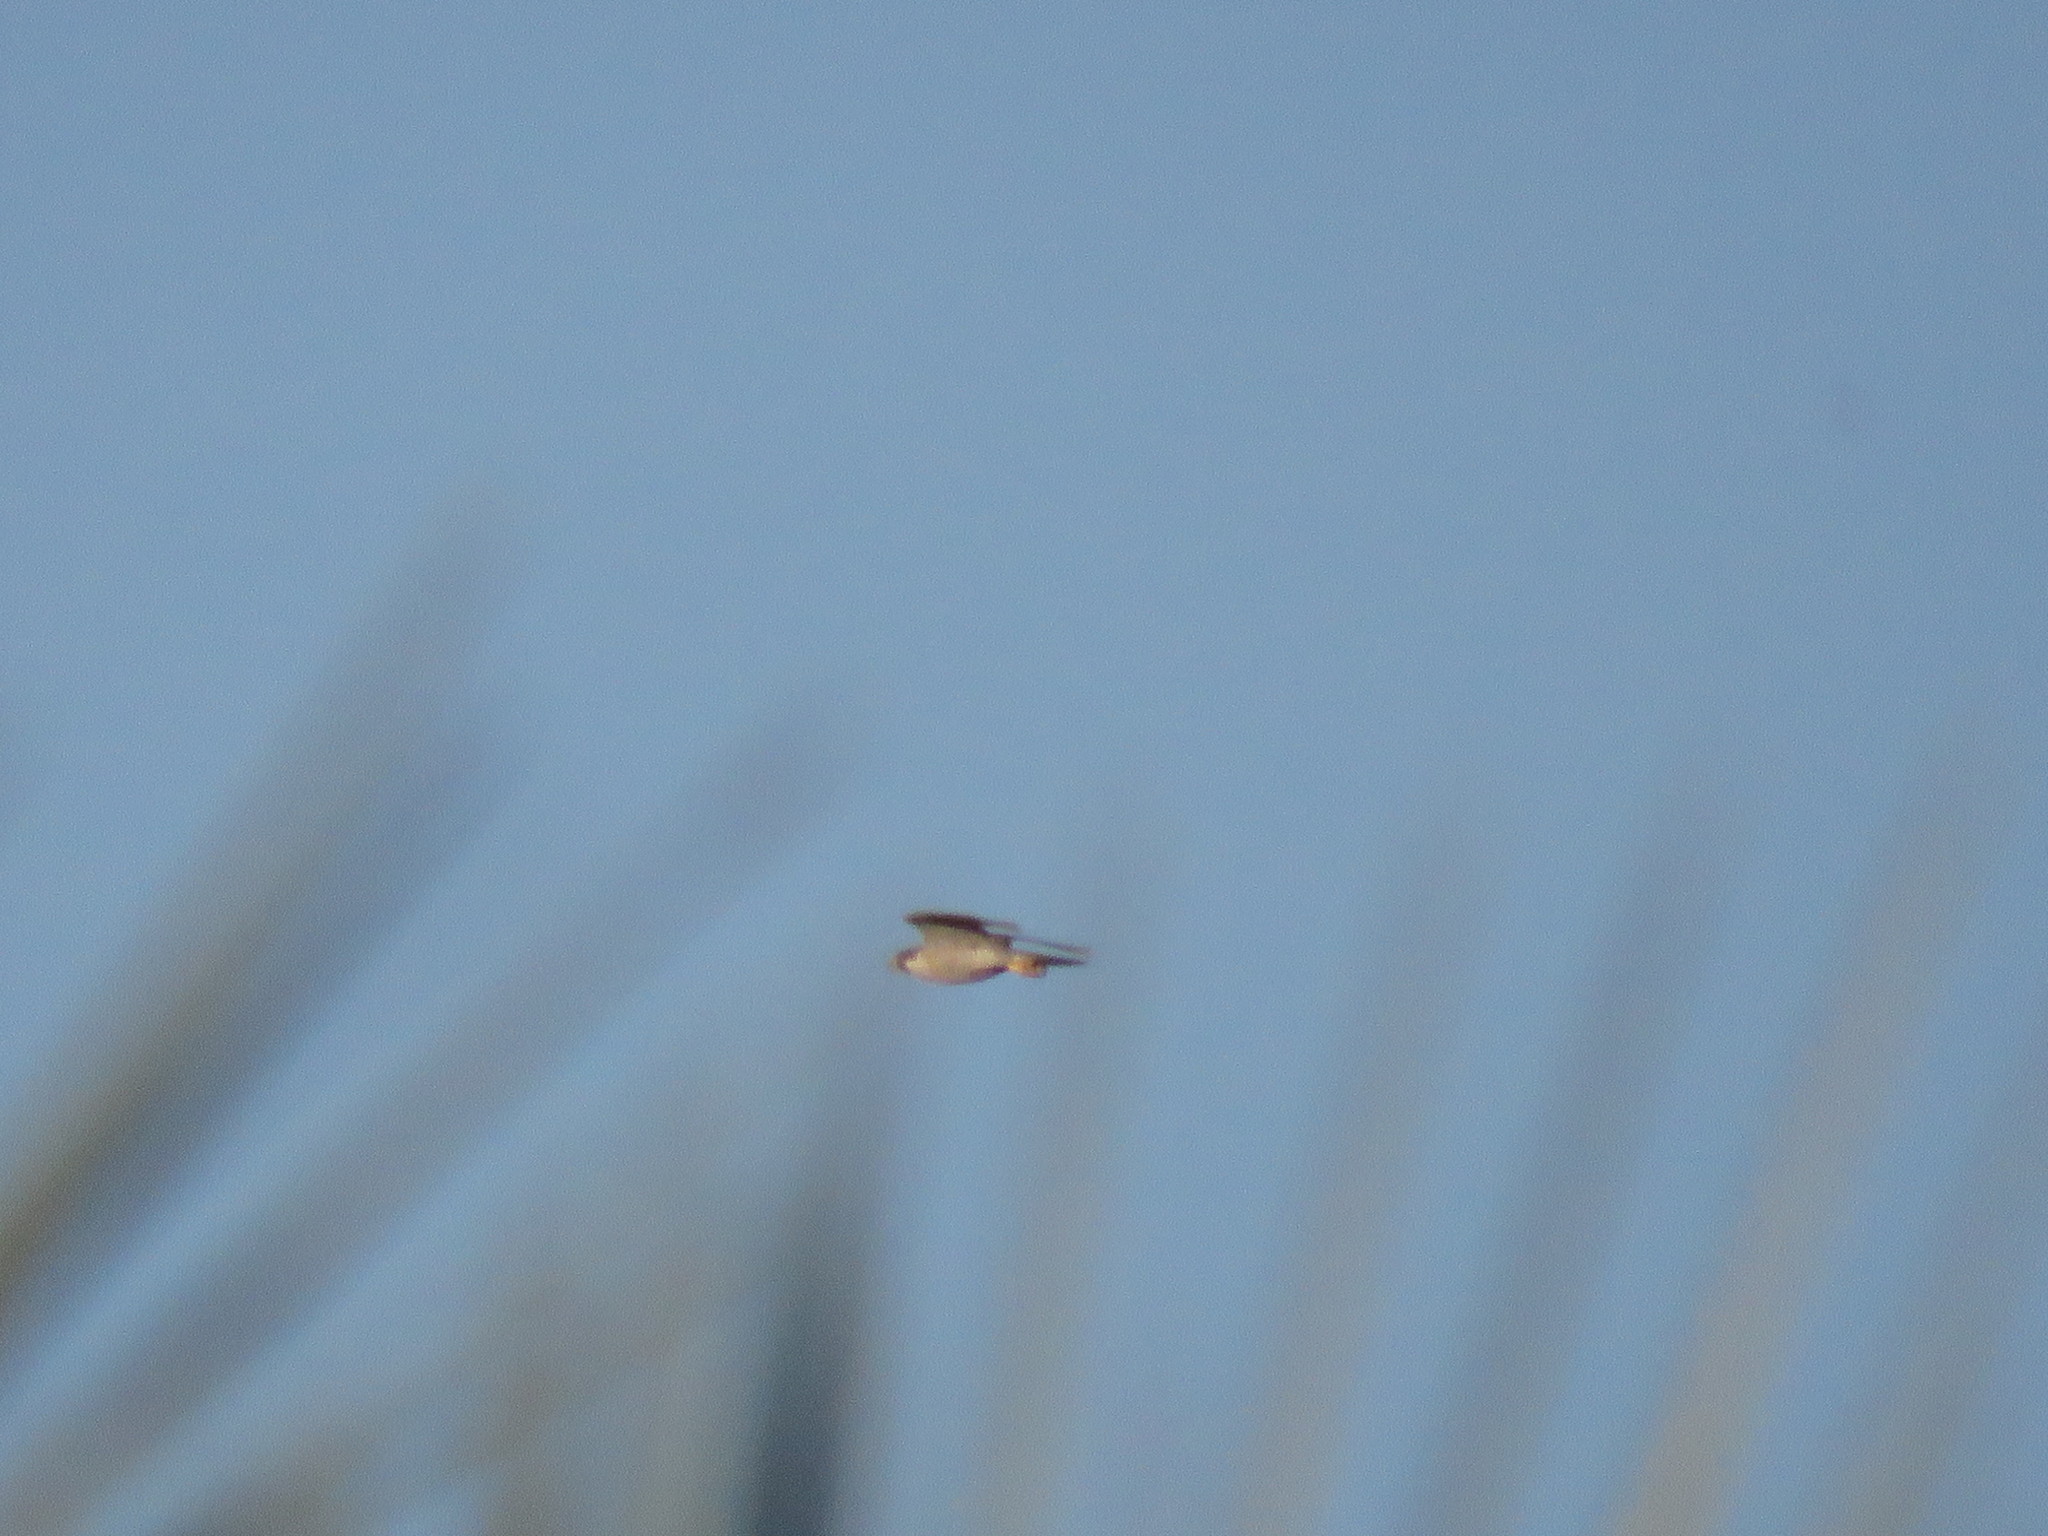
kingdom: Animalia
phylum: Chordata
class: Aves
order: Falconiformes
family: Falconidae
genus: Falco
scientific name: Falco peregrinus
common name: Peregrine falcon
